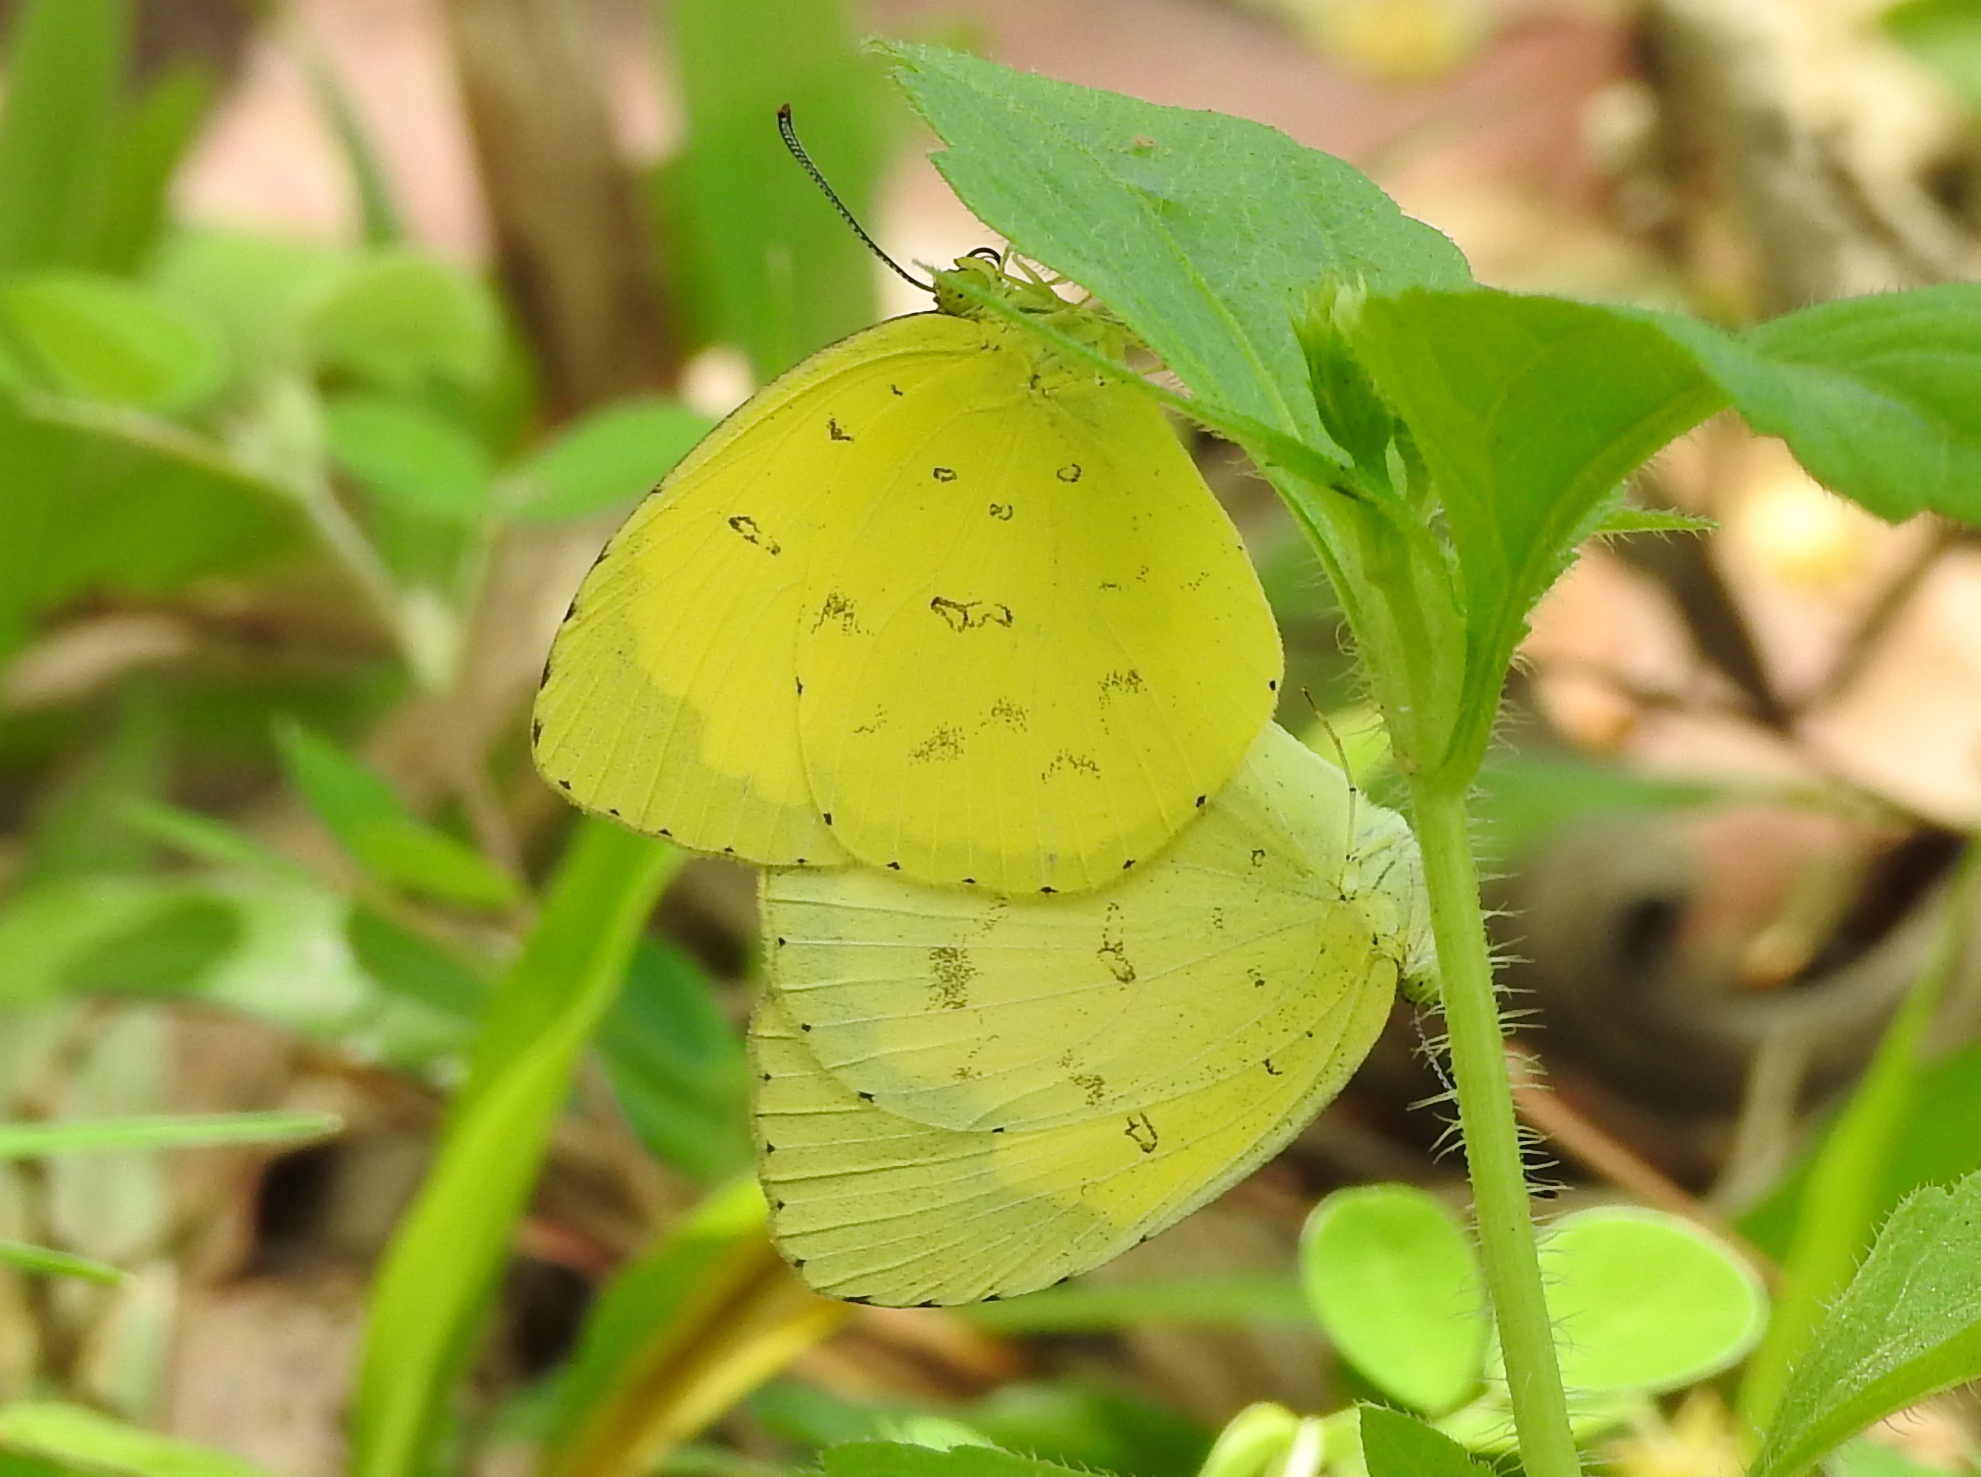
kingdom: Animalia
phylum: Arthropoda
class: Insecta
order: Lepidoptera
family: Pieridae
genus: Eurema
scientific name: Eurema hecabe
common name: Pale grass yellow
